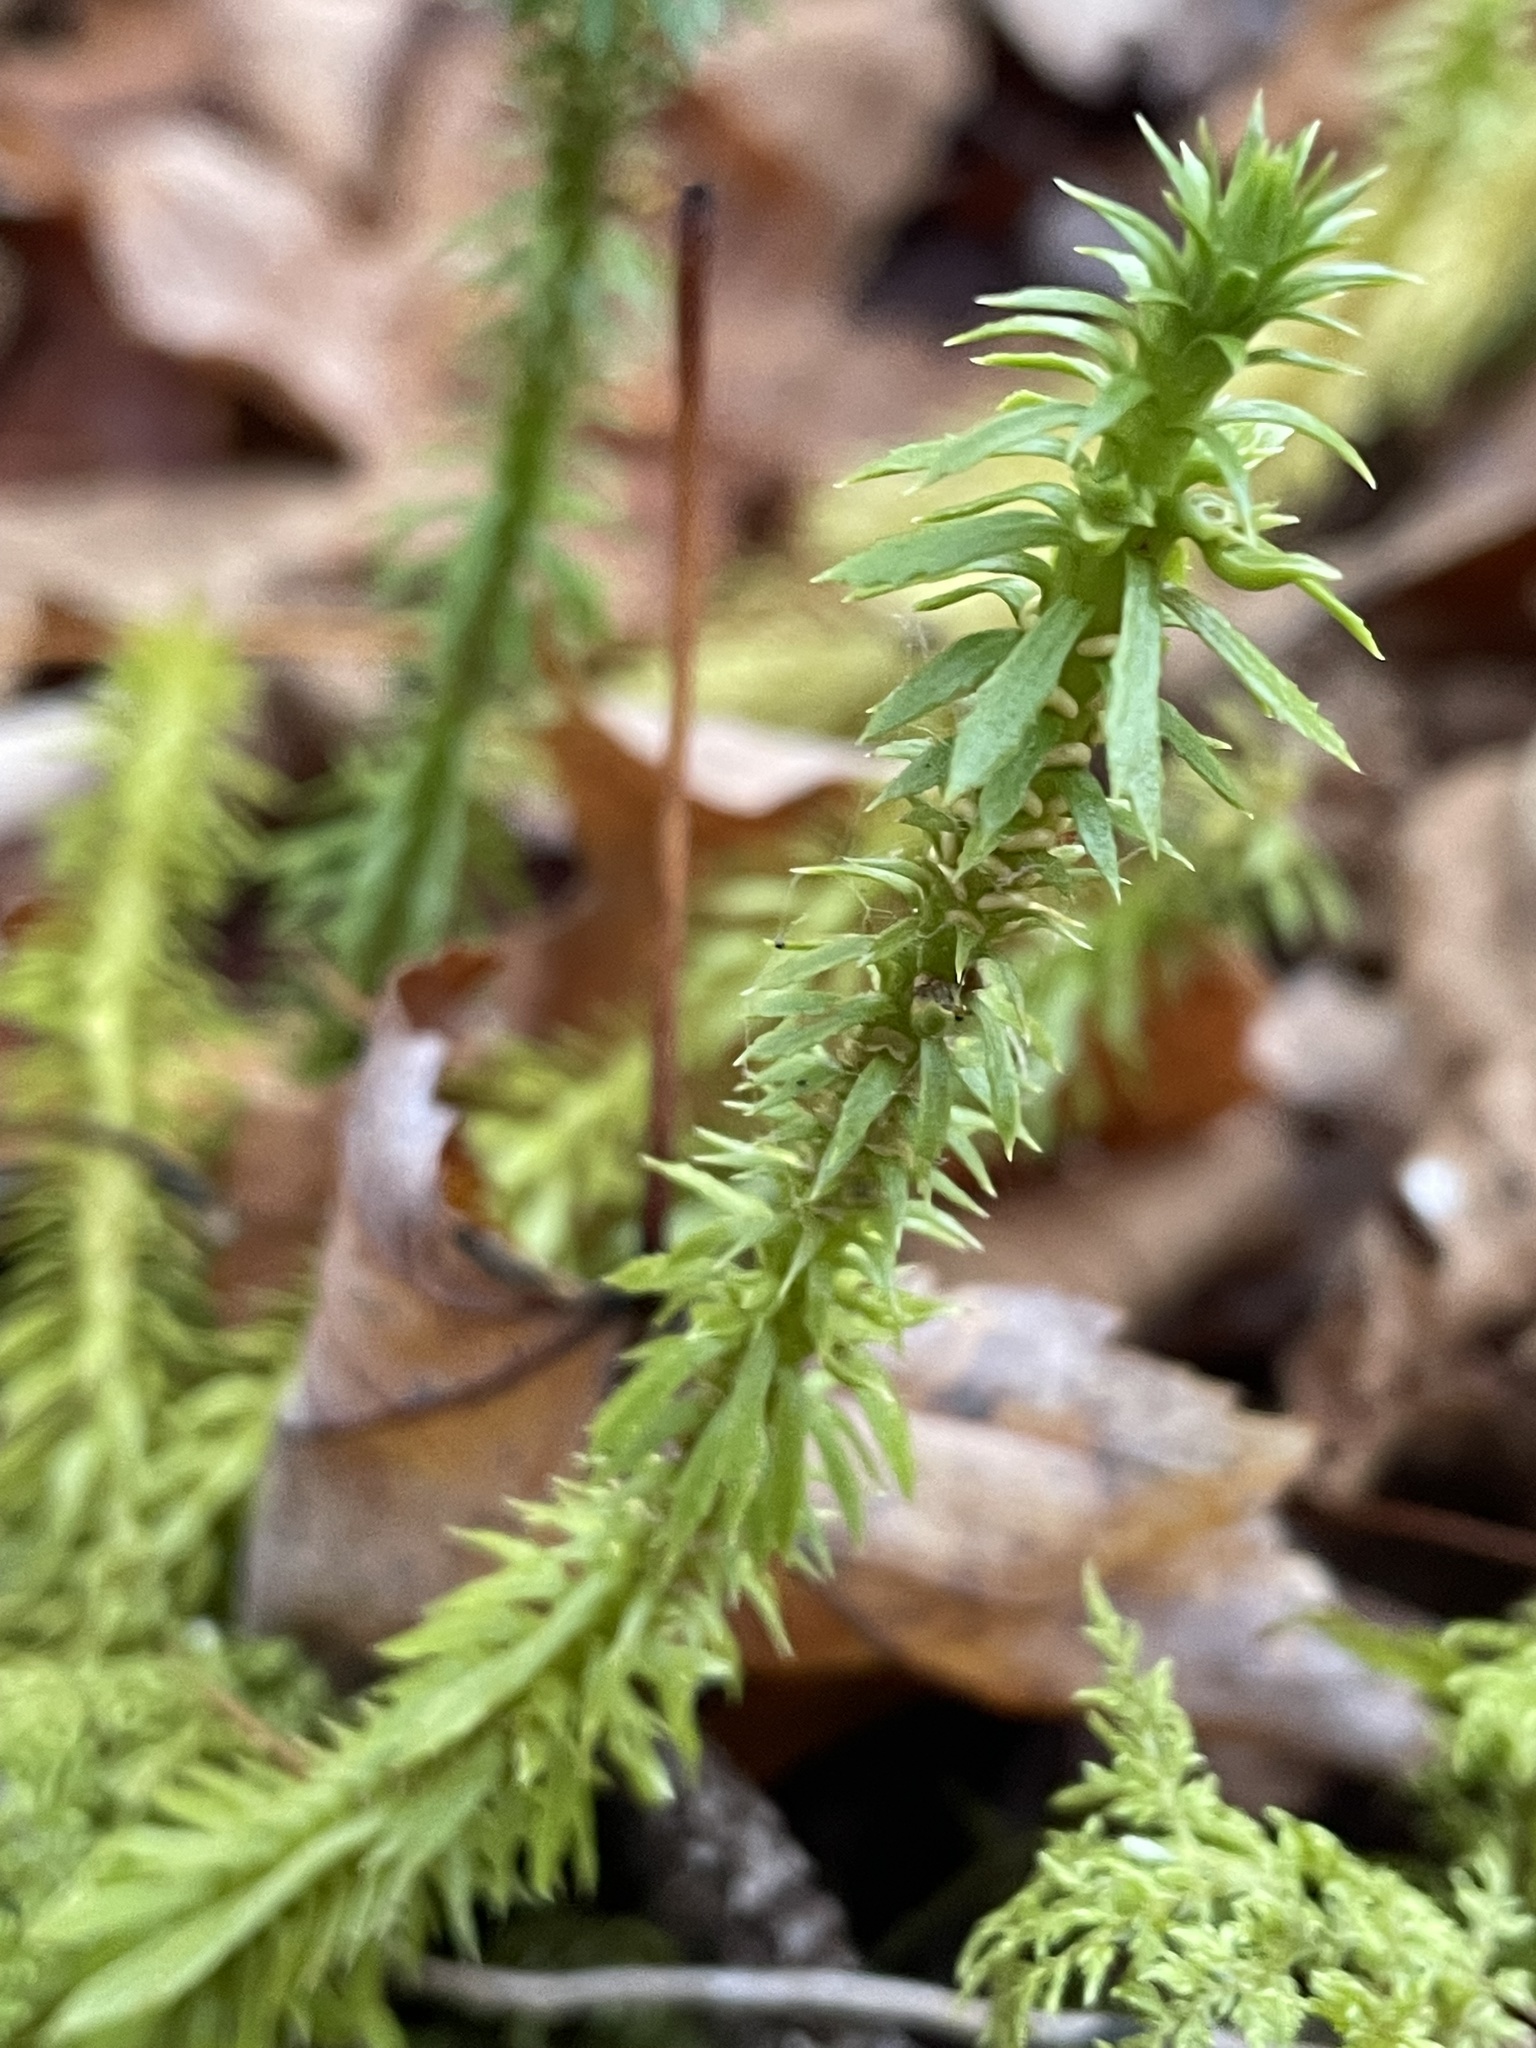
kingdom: Plantae
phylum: Tracheophyta
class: Lycopodiopsida
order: Lycopodiales
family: Lycopodiaceae
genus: Huperzia
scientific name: Huperzia lucidula
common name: Shining clubmoss
